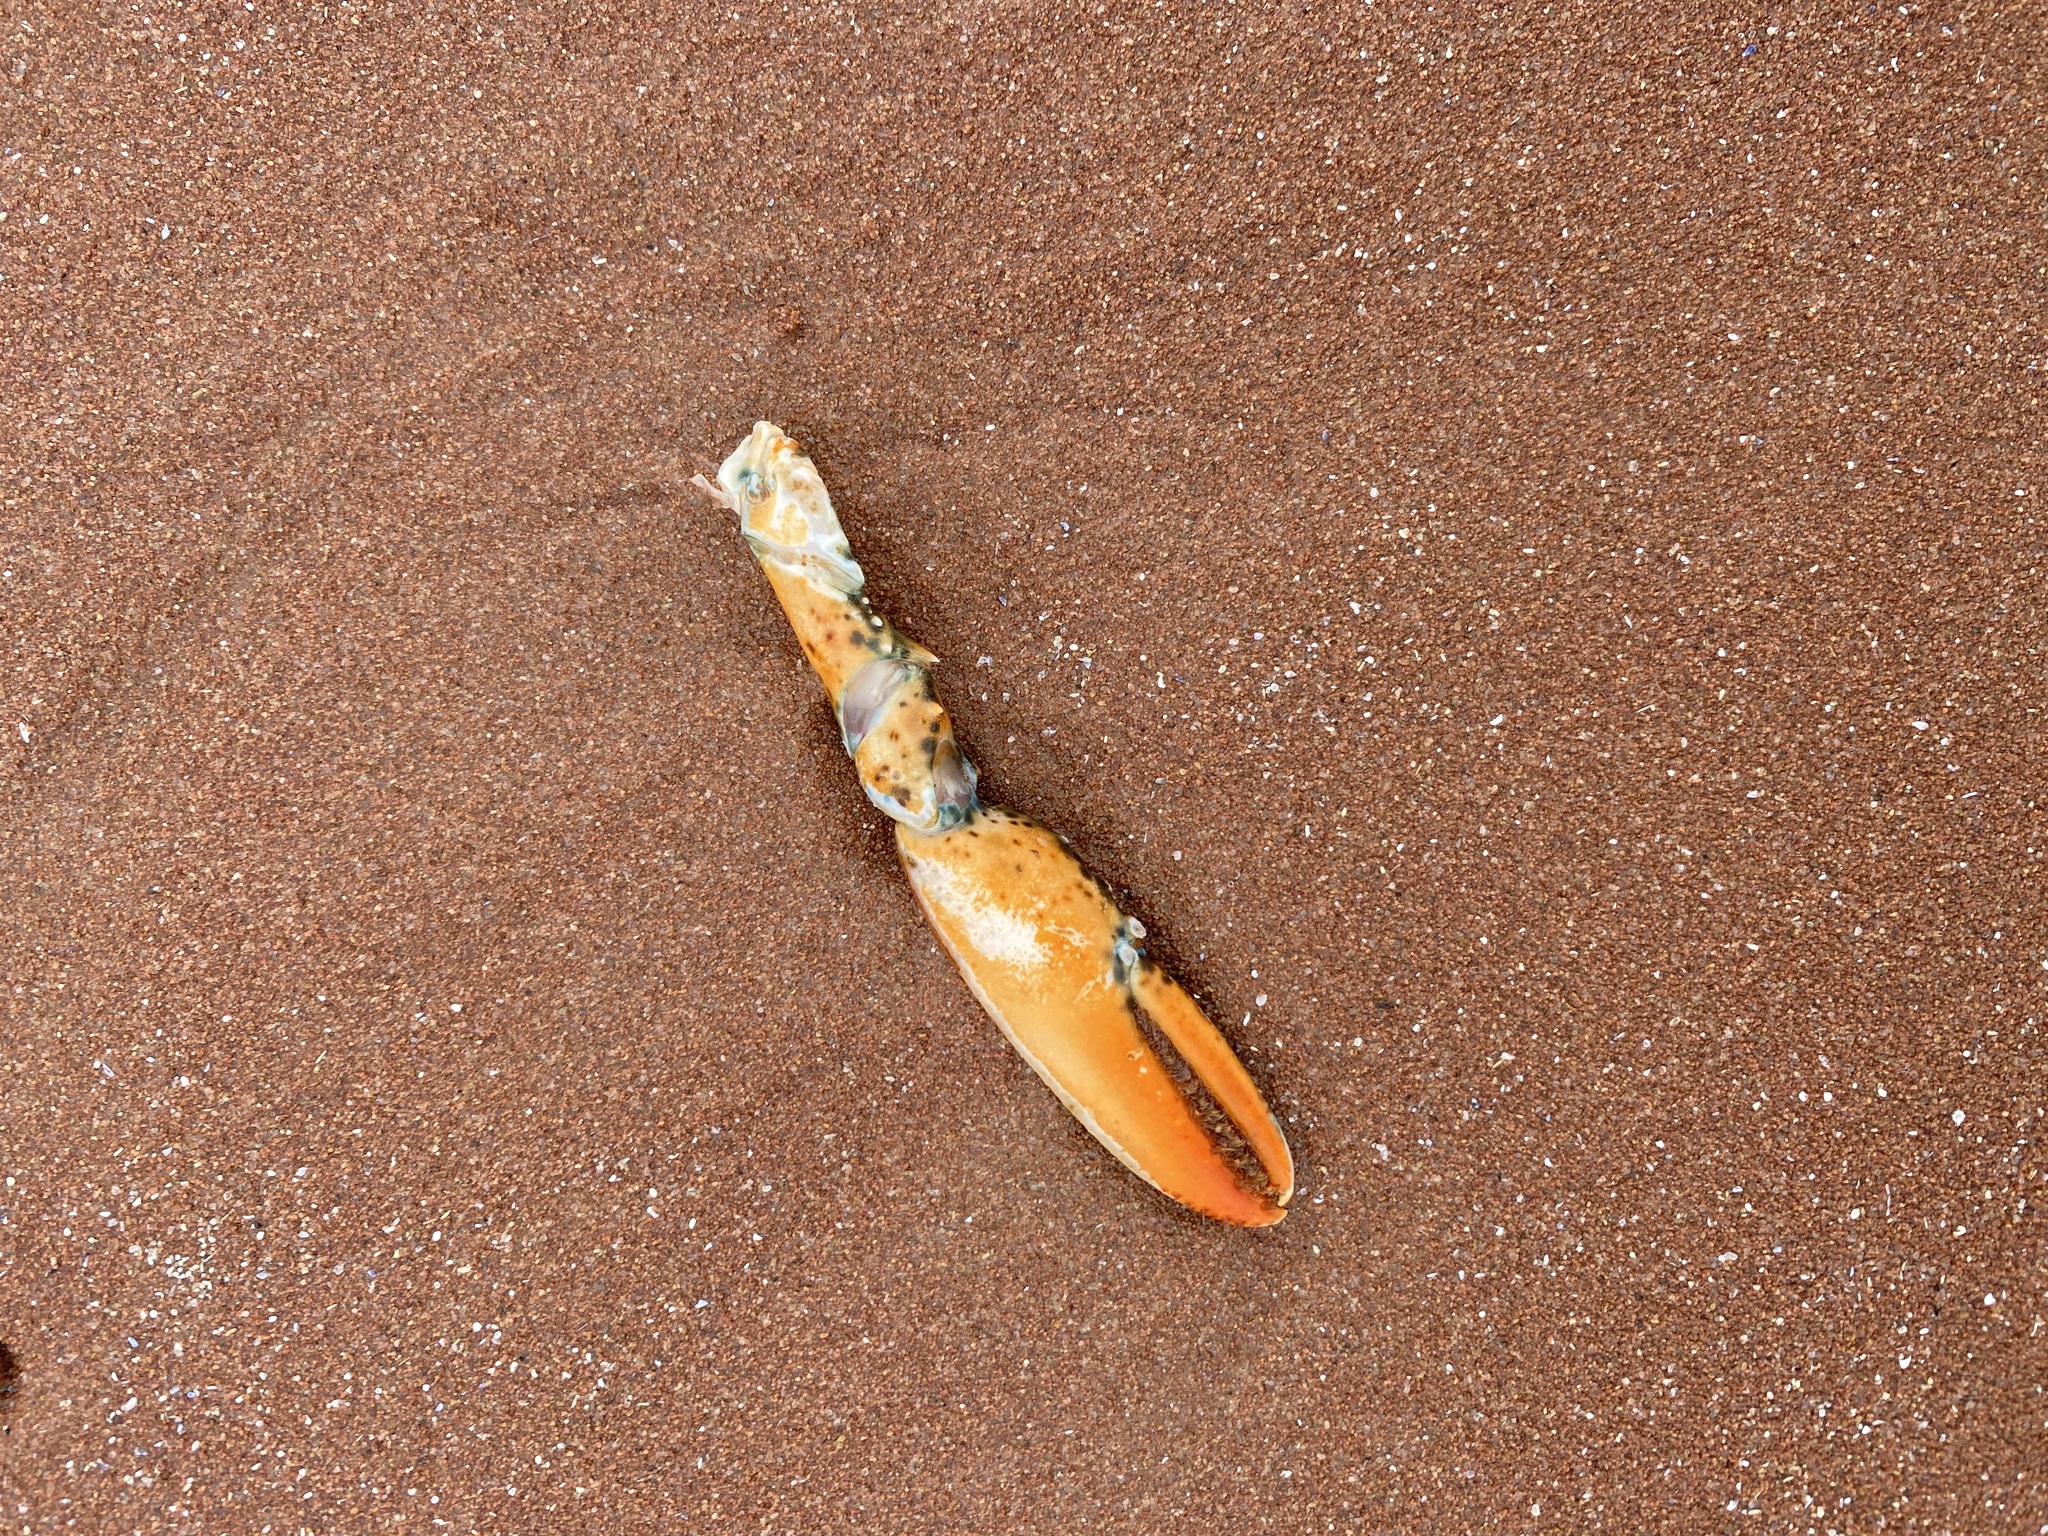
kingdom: Animalia
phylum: Arthropoda
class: Malacostraca
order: Decapoda
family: Nephropidae
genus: Homarus
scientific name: Homarus americanus
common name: American lobster
